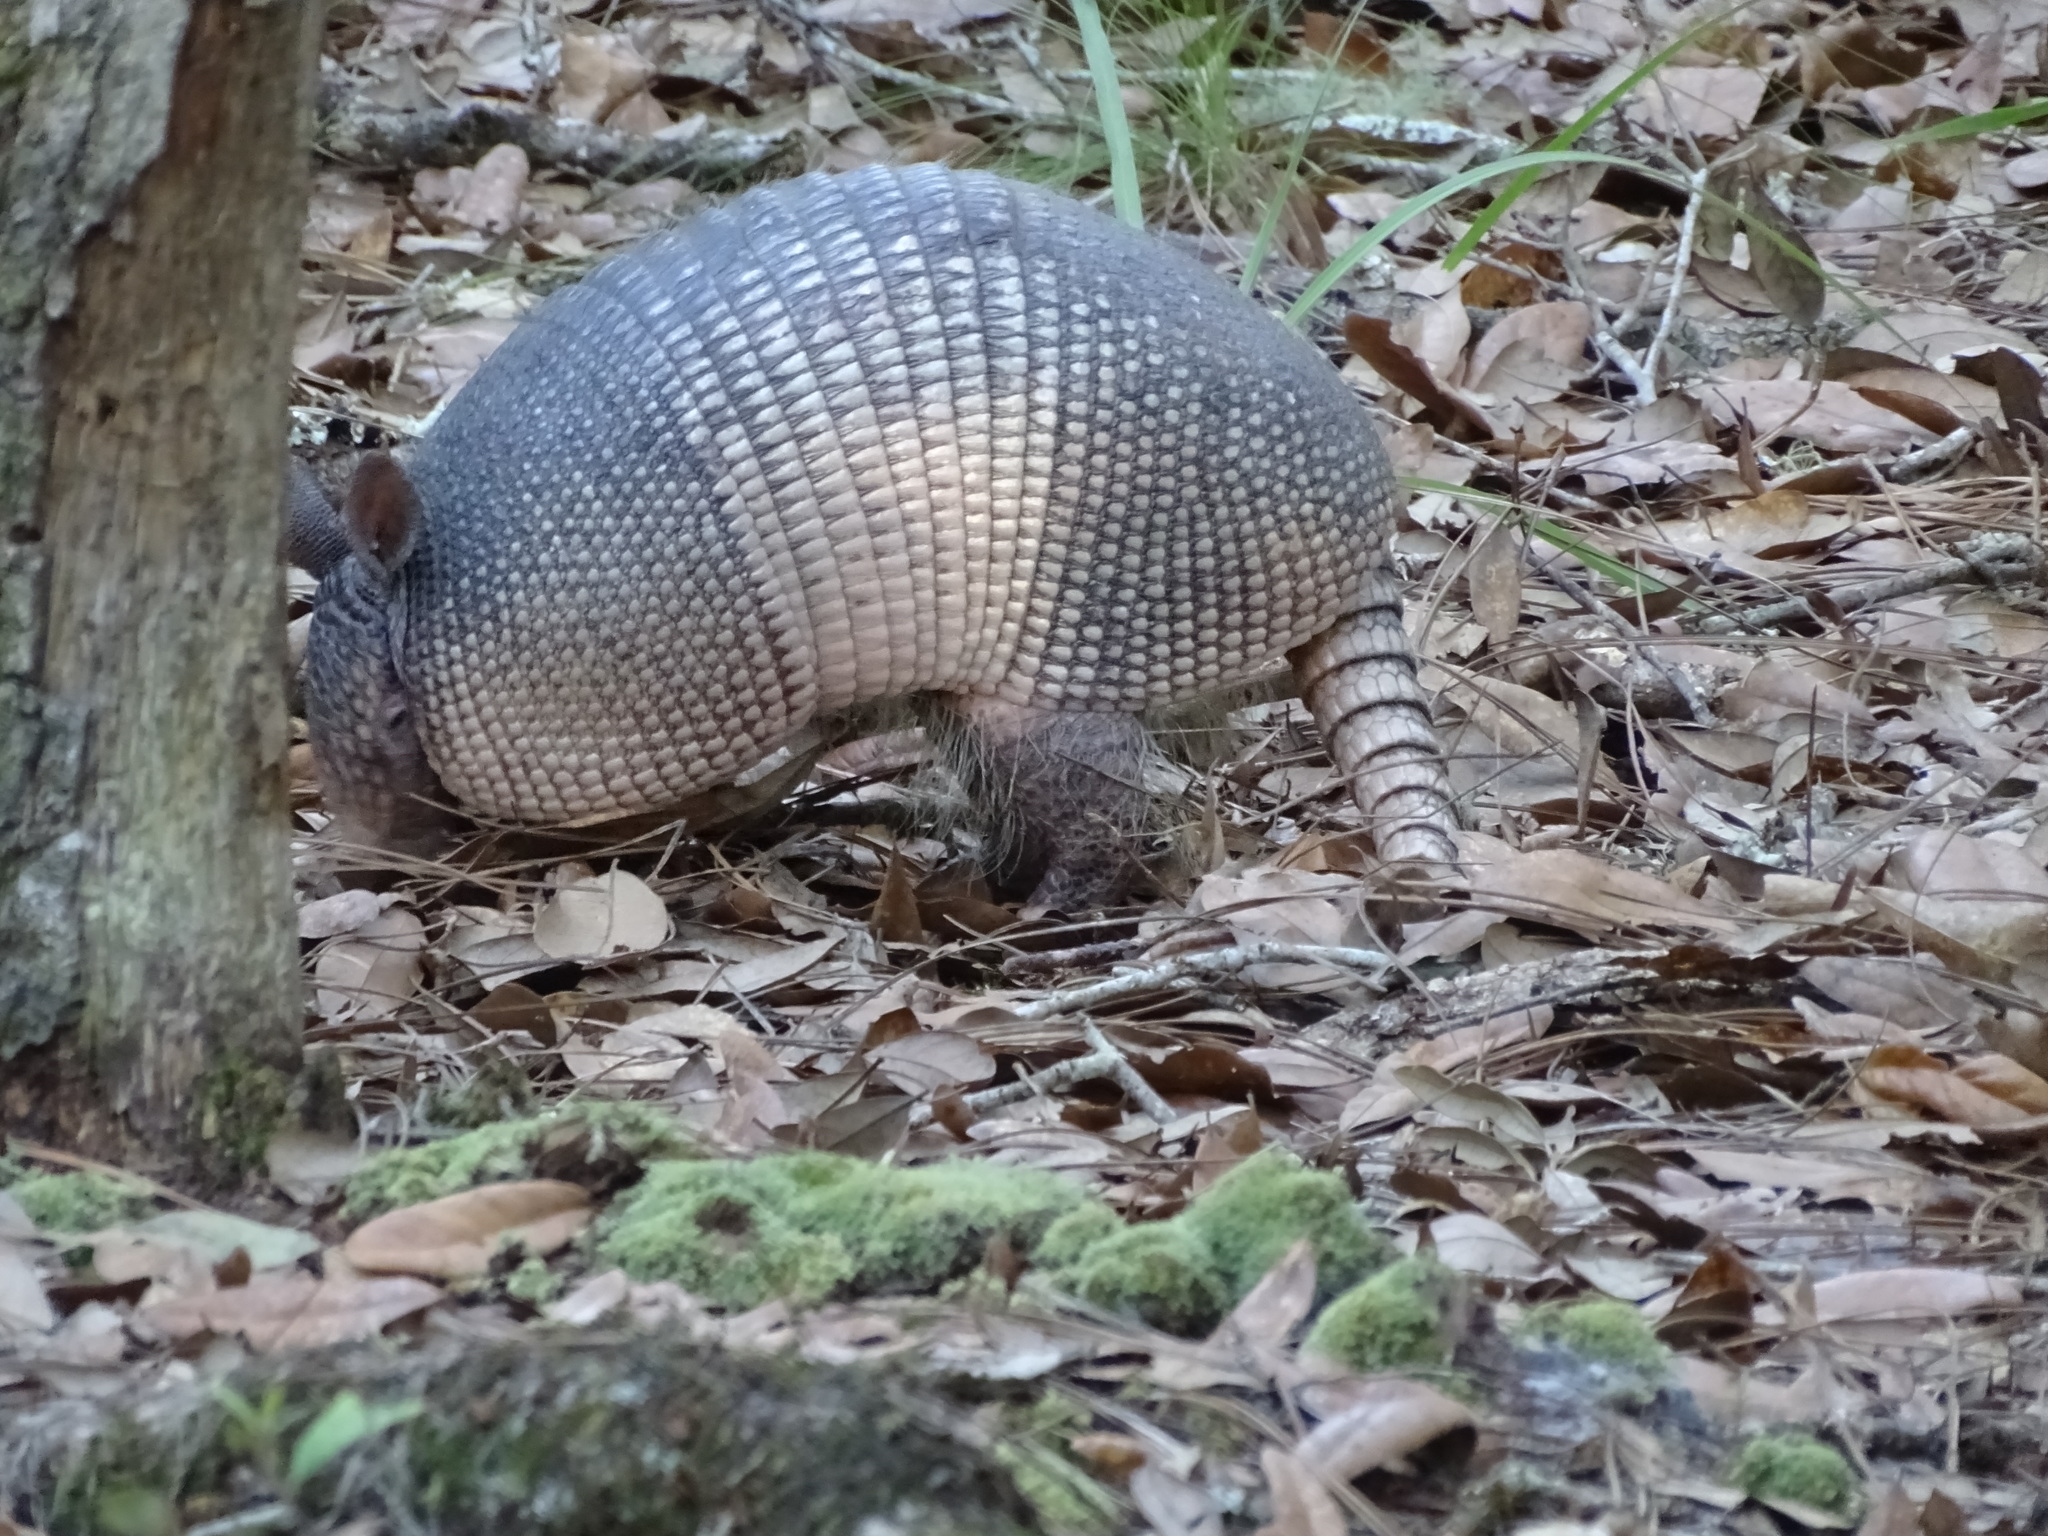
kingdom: Animalia
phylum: Chordata
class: Mammalia
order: Cingulata
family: Dasypodidae
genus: Dasypus
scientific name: Dasypus novemcinctus
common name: Nine-banded armadillo
